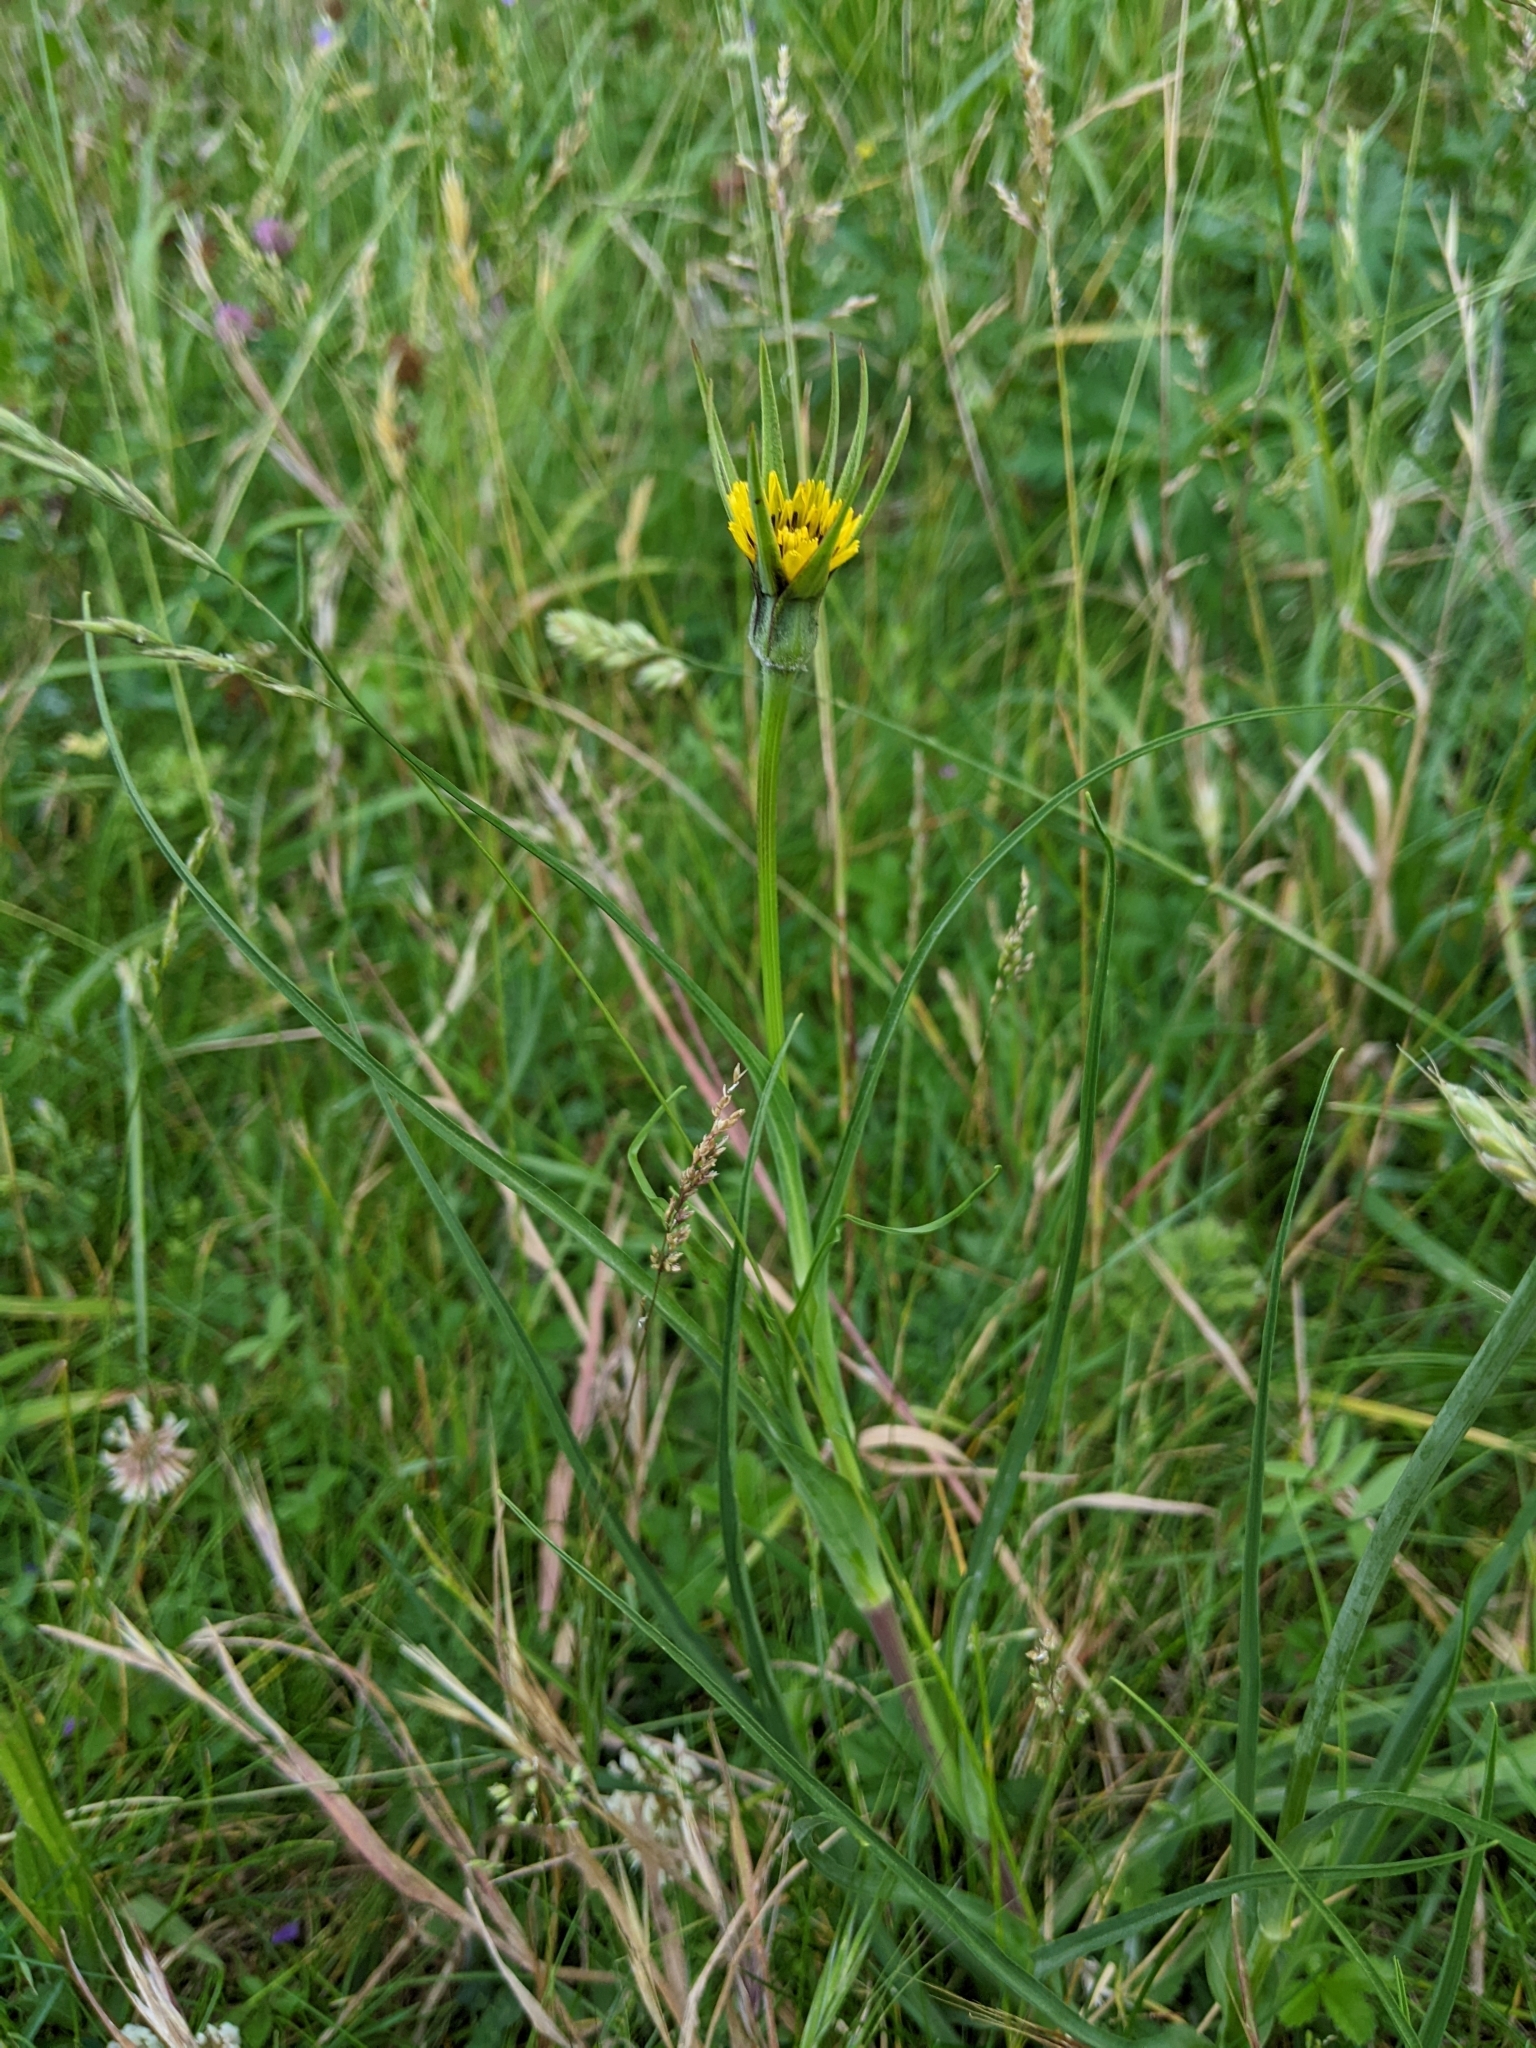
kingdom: Plantae
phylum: Tracheophyta
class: Magnoliopsida
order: Asterales
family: Asteraceae
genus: Tragopogon
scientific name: Tragopogon pratensis
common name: Goat's-beard
